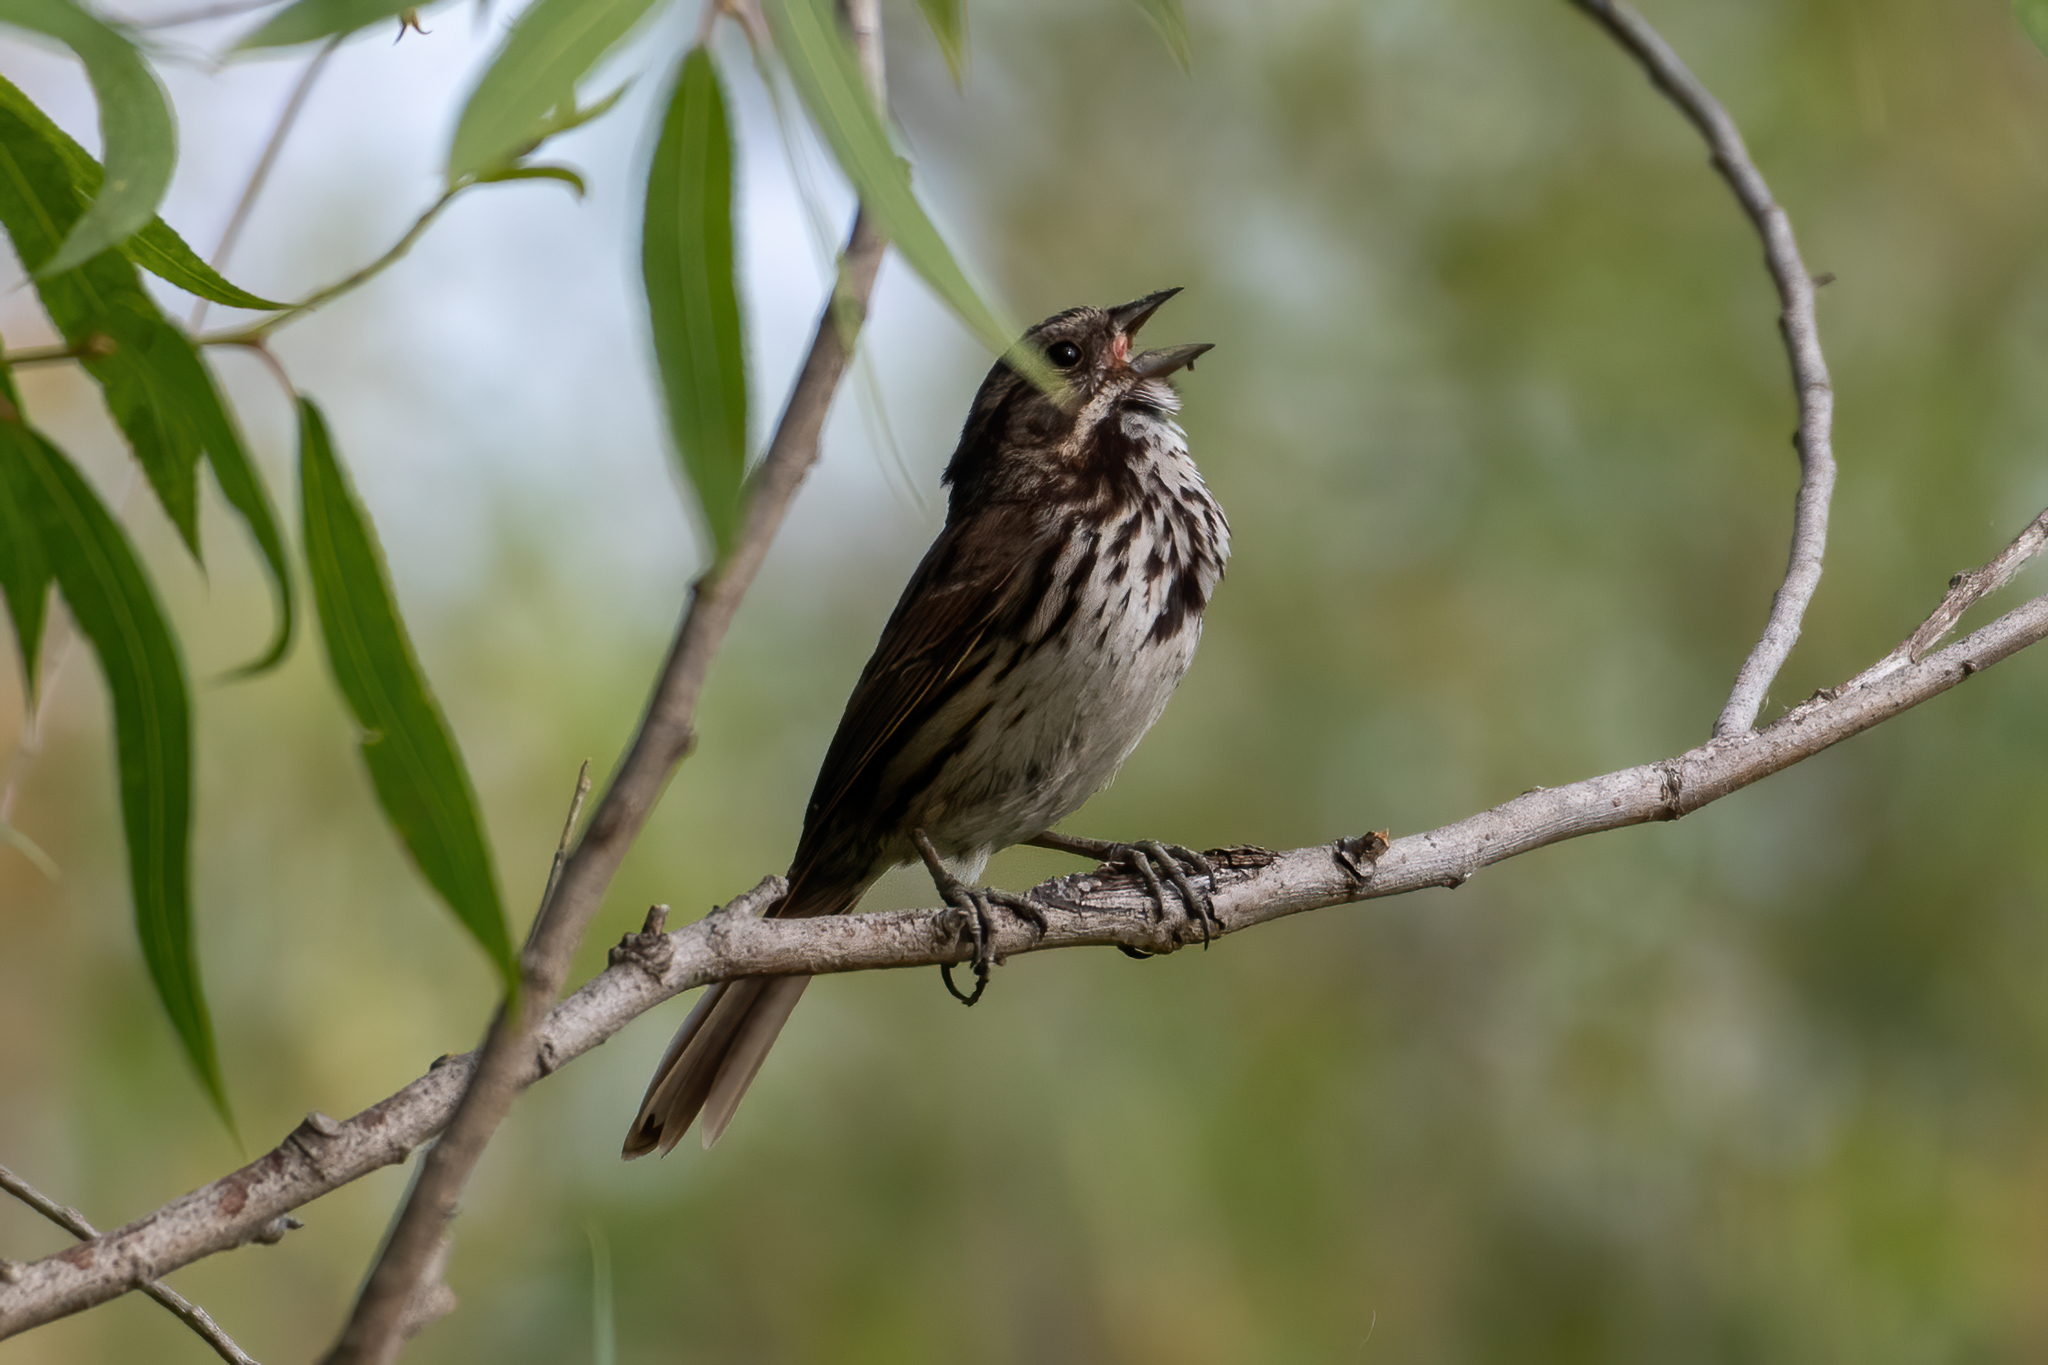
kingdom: Animalia
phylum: Chordata
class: Aves
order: Passeriformes
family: Passerellidae
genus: Melospiza
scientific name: Melospiza melodia
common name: Song sparrow
